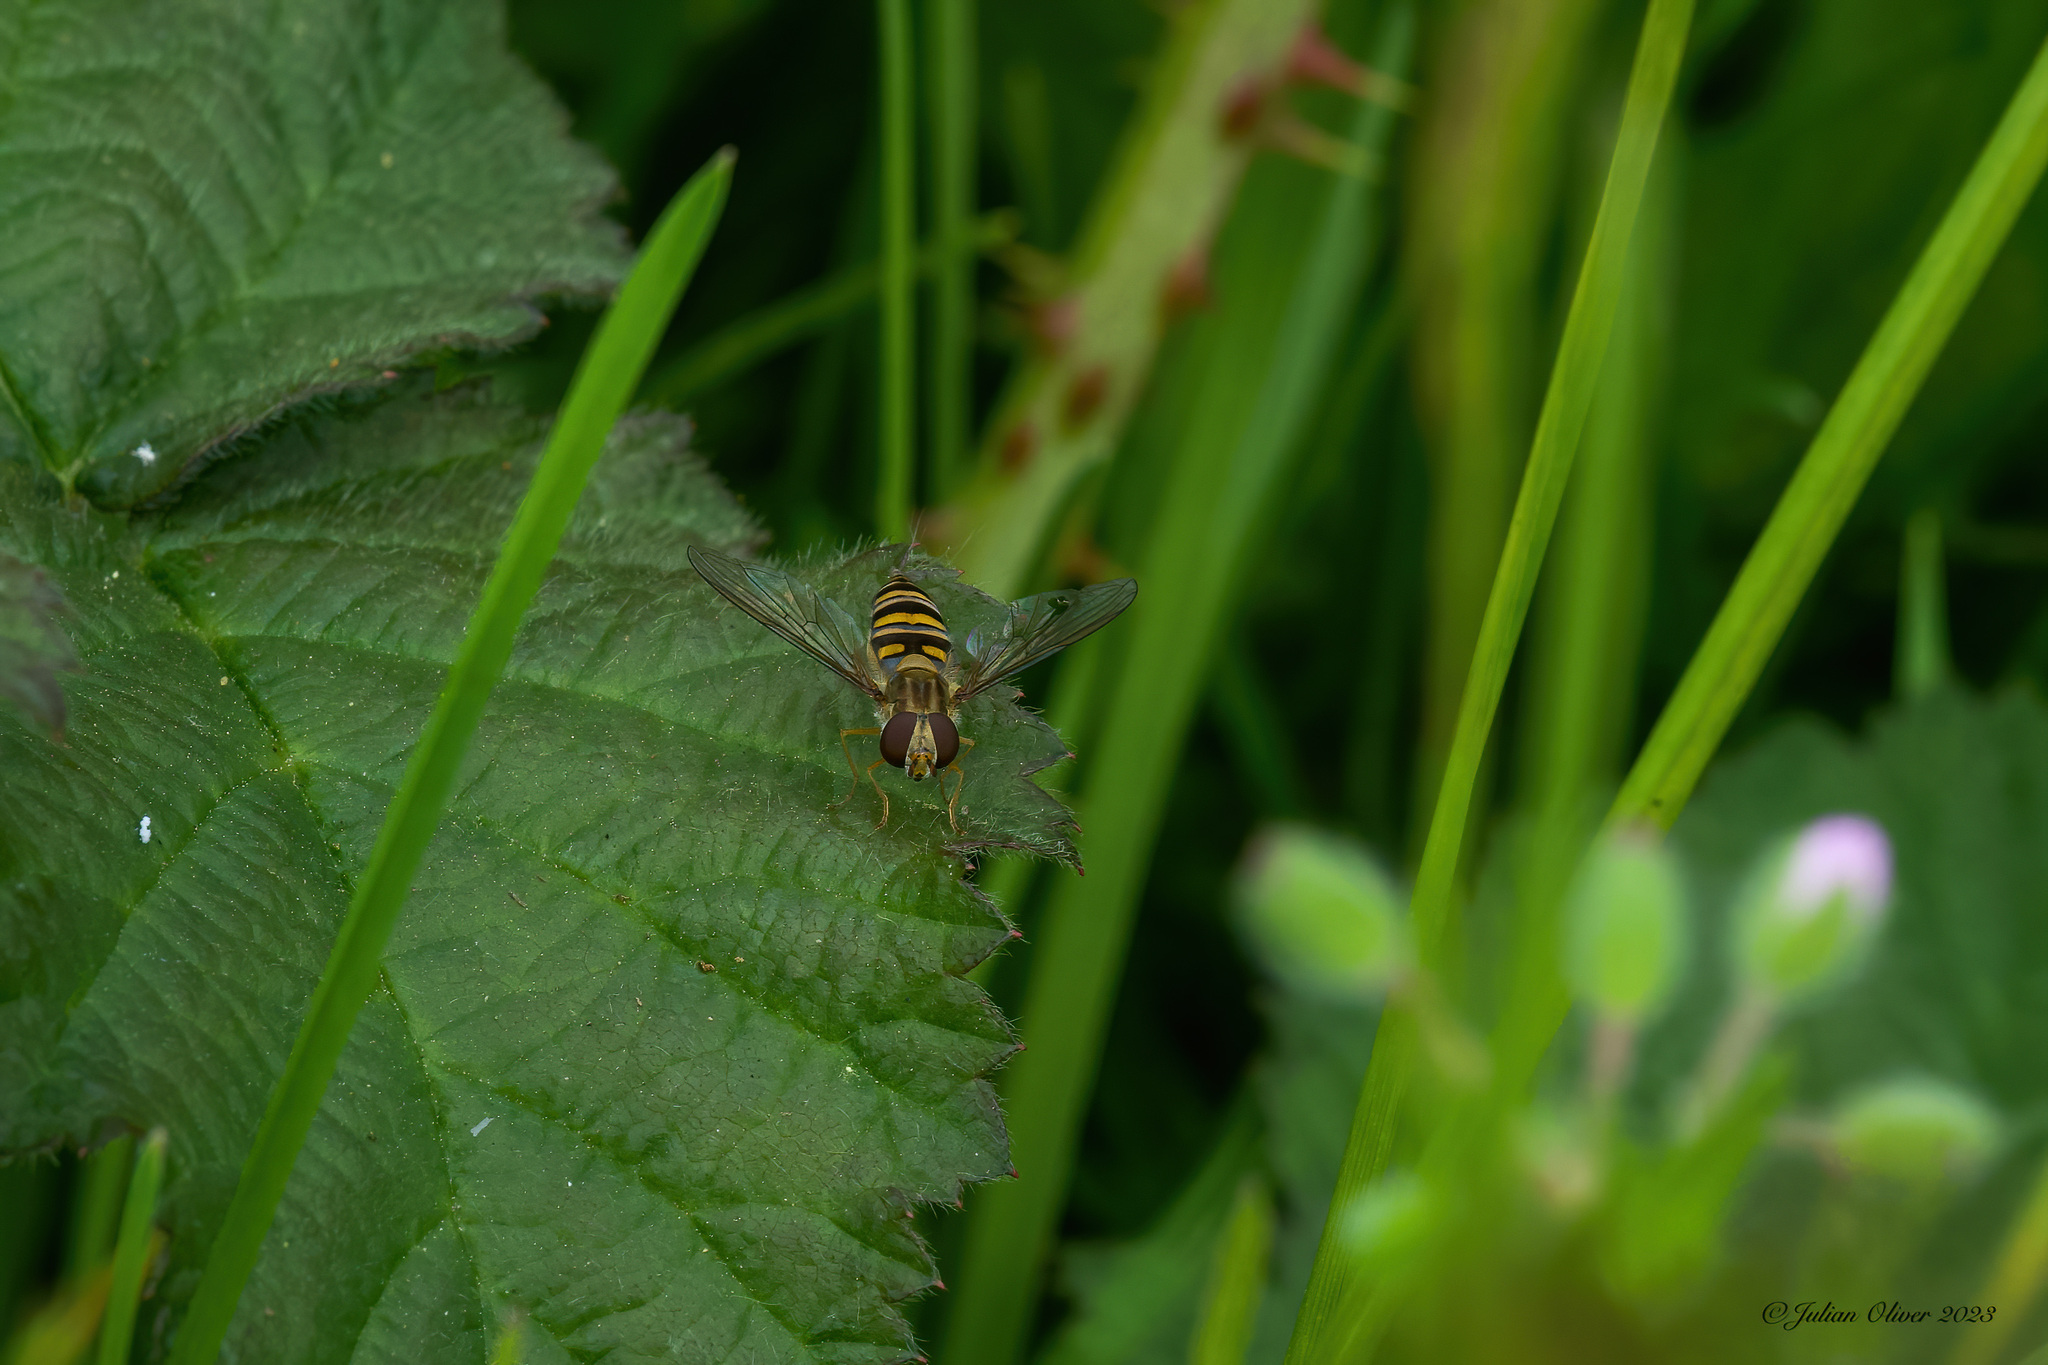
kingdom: Animalia
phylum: Arthropoda
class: Insecta
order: Diptera
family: Syrphidae
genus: Episyrphus
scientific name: Episyrphus balteatus
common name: Marmalade hoverfly
